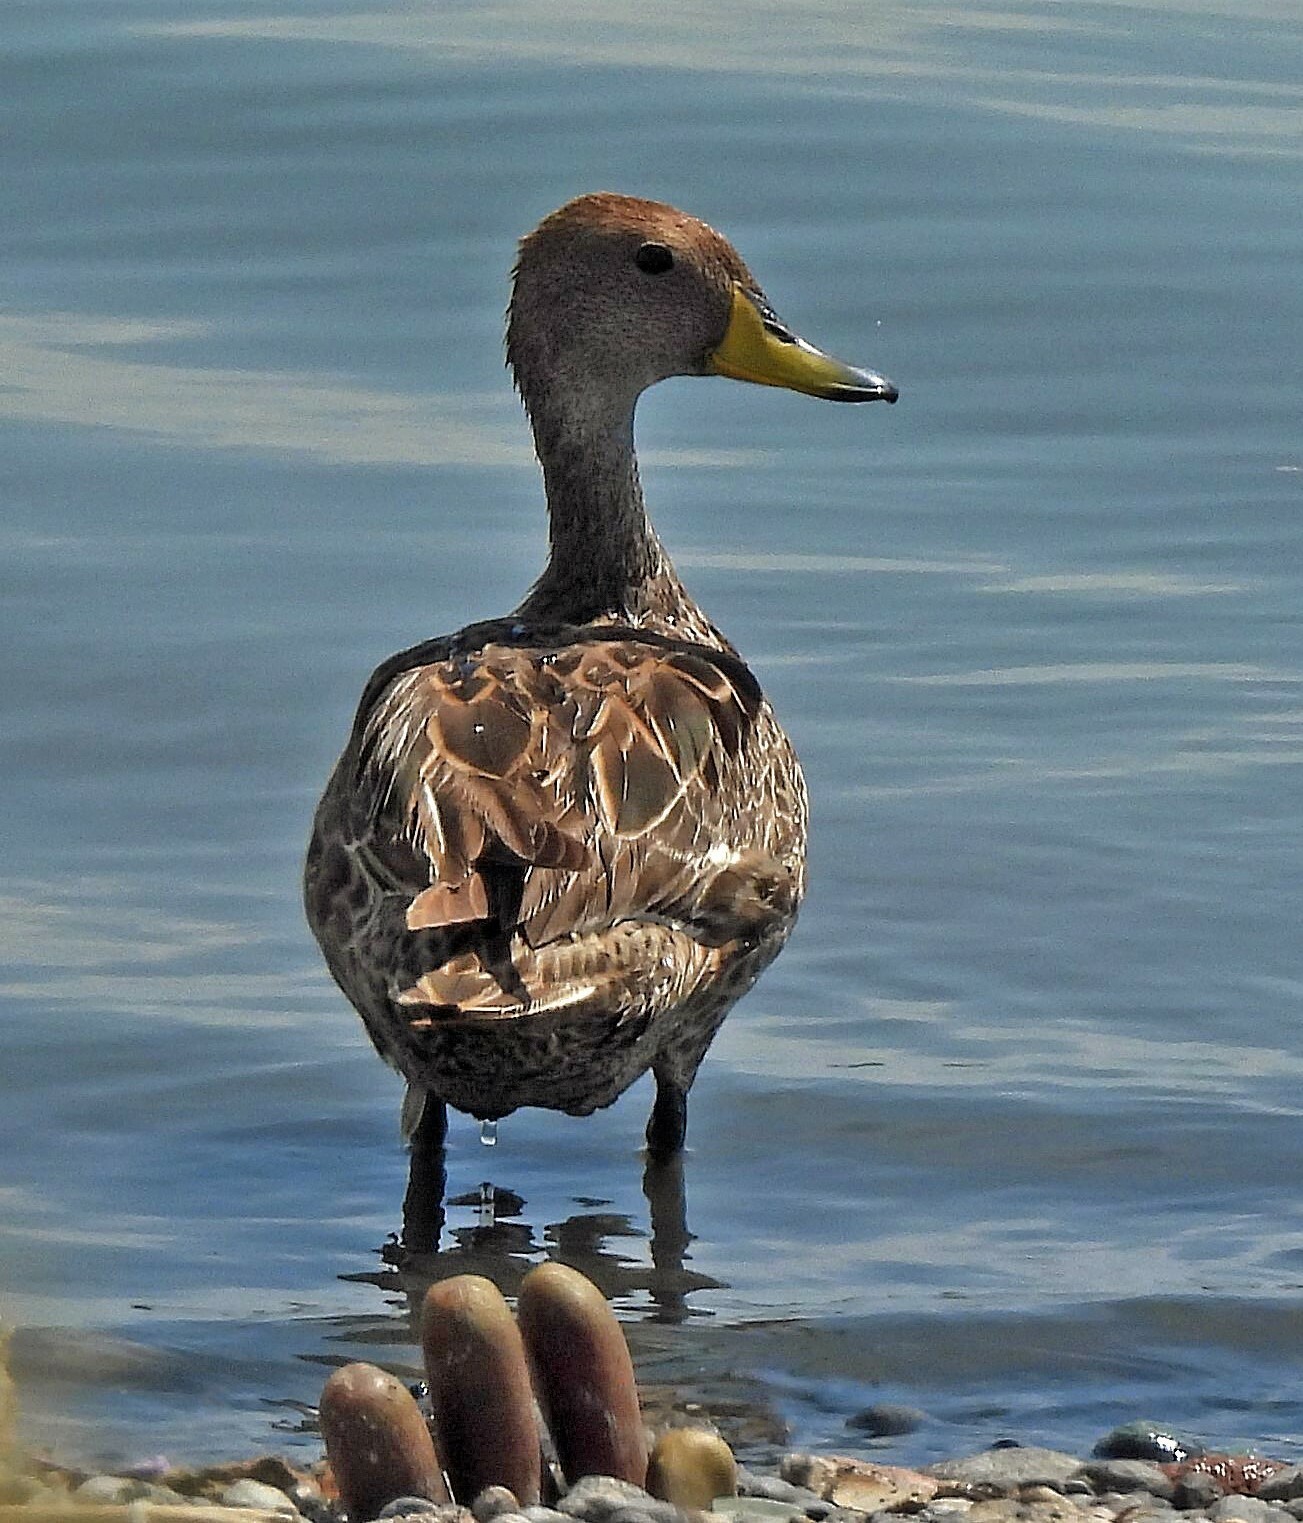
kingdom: Animalia
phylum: Chordata
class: Aves
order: Anseriformes
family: Anatidae
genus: Anas
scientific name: Anas georgica
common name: Yellow-billed pintail
